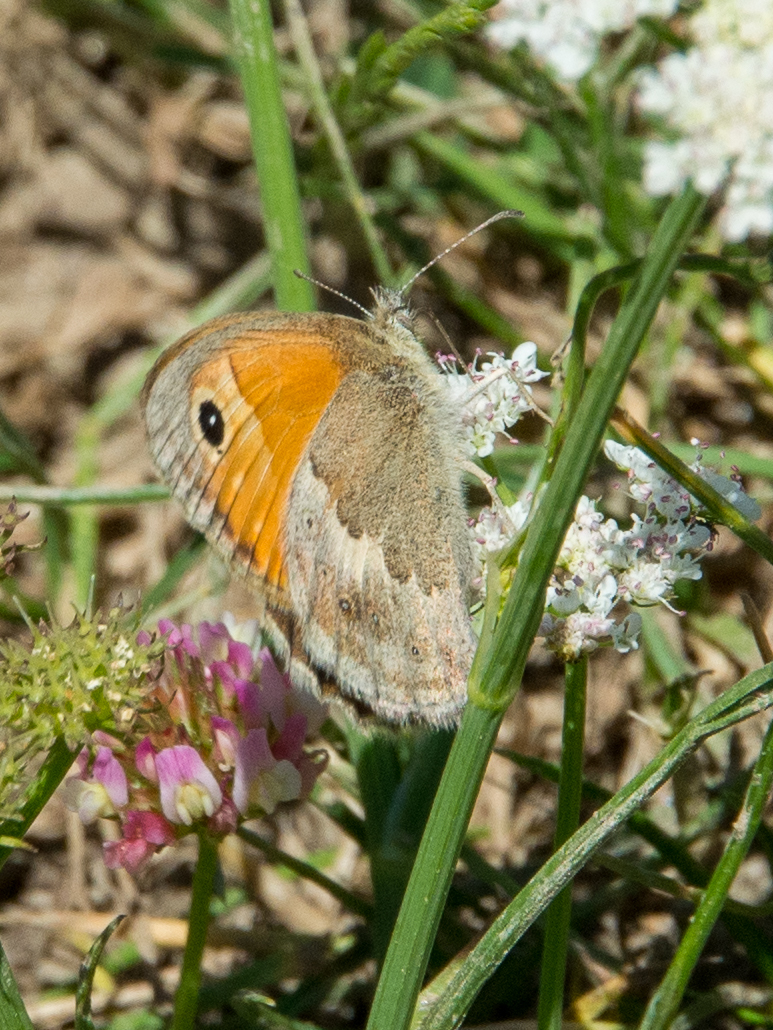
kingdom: Animalia
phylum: Arthropoda
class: Insecta
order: Lepidoptera
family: Nymphalidae
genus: Coenonympha
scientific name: Coenonympha pamphilus
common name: Small heath
